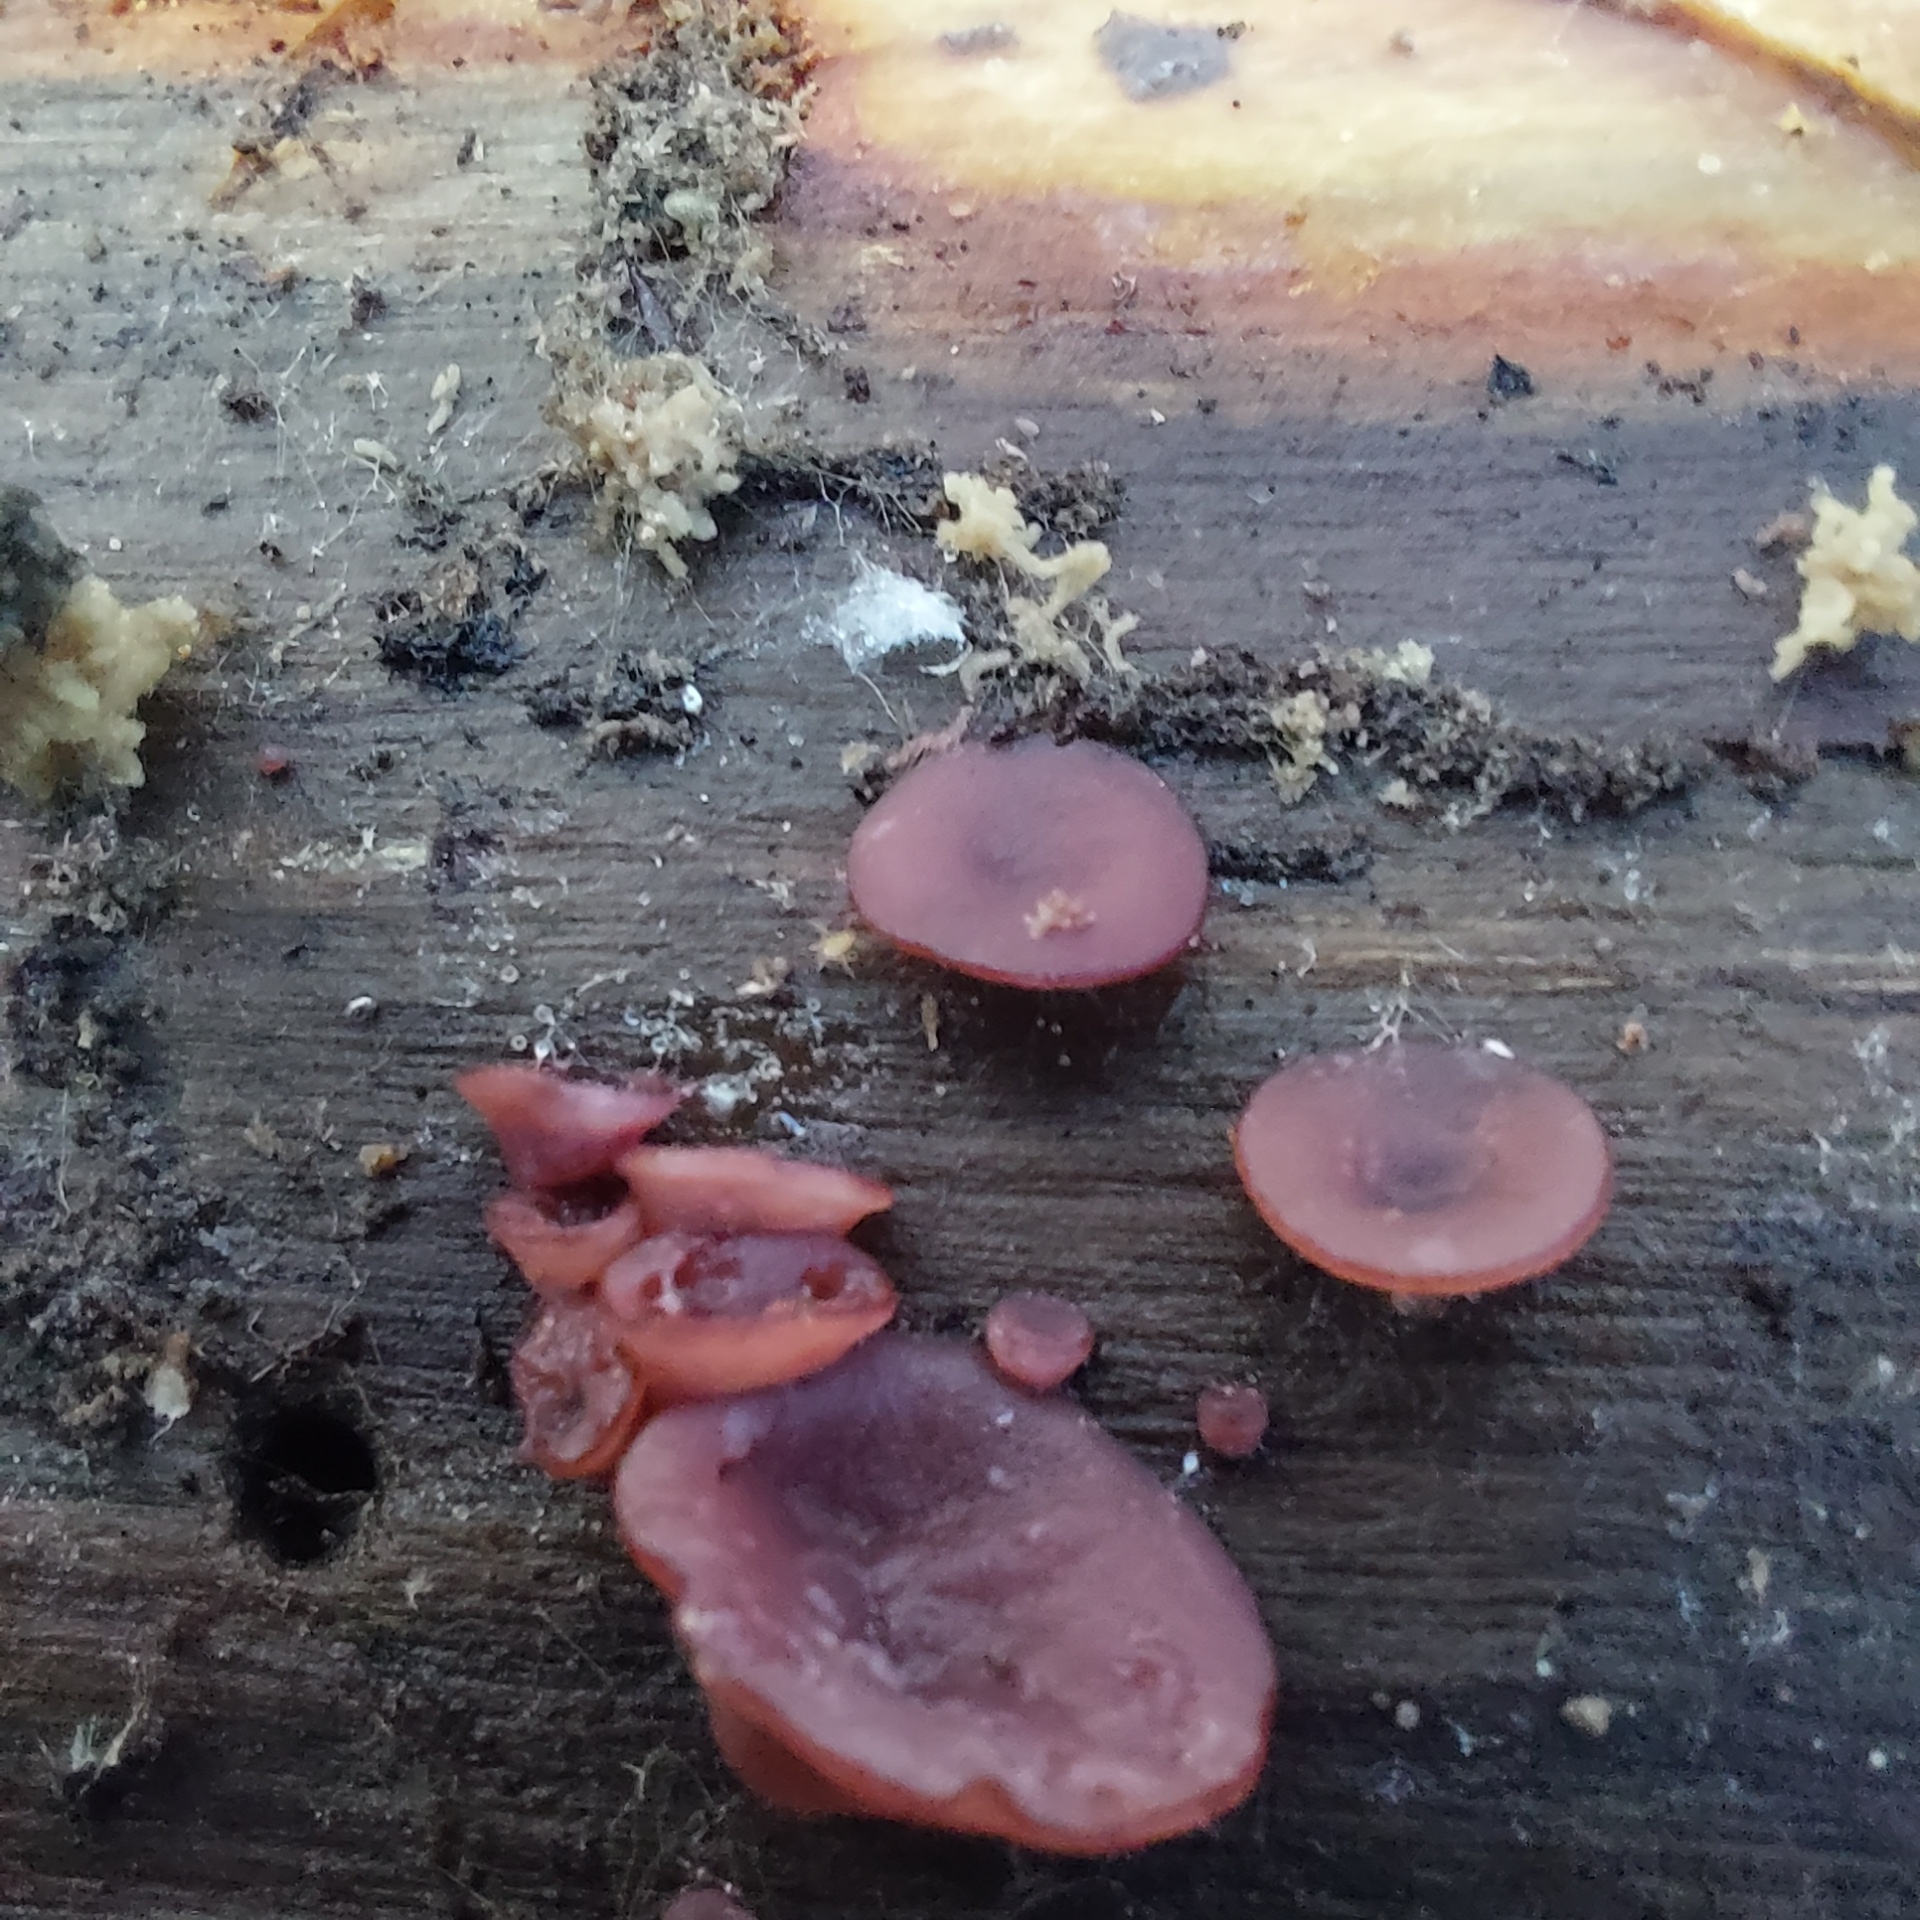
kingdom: Fungi
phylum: Ascomycota
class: Leotiomycetes
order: Helotiales
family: Gelatinodiscaceae
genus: Ascocoryne
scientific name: Ascocoryne sarcoides
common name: Purple jellydisc
